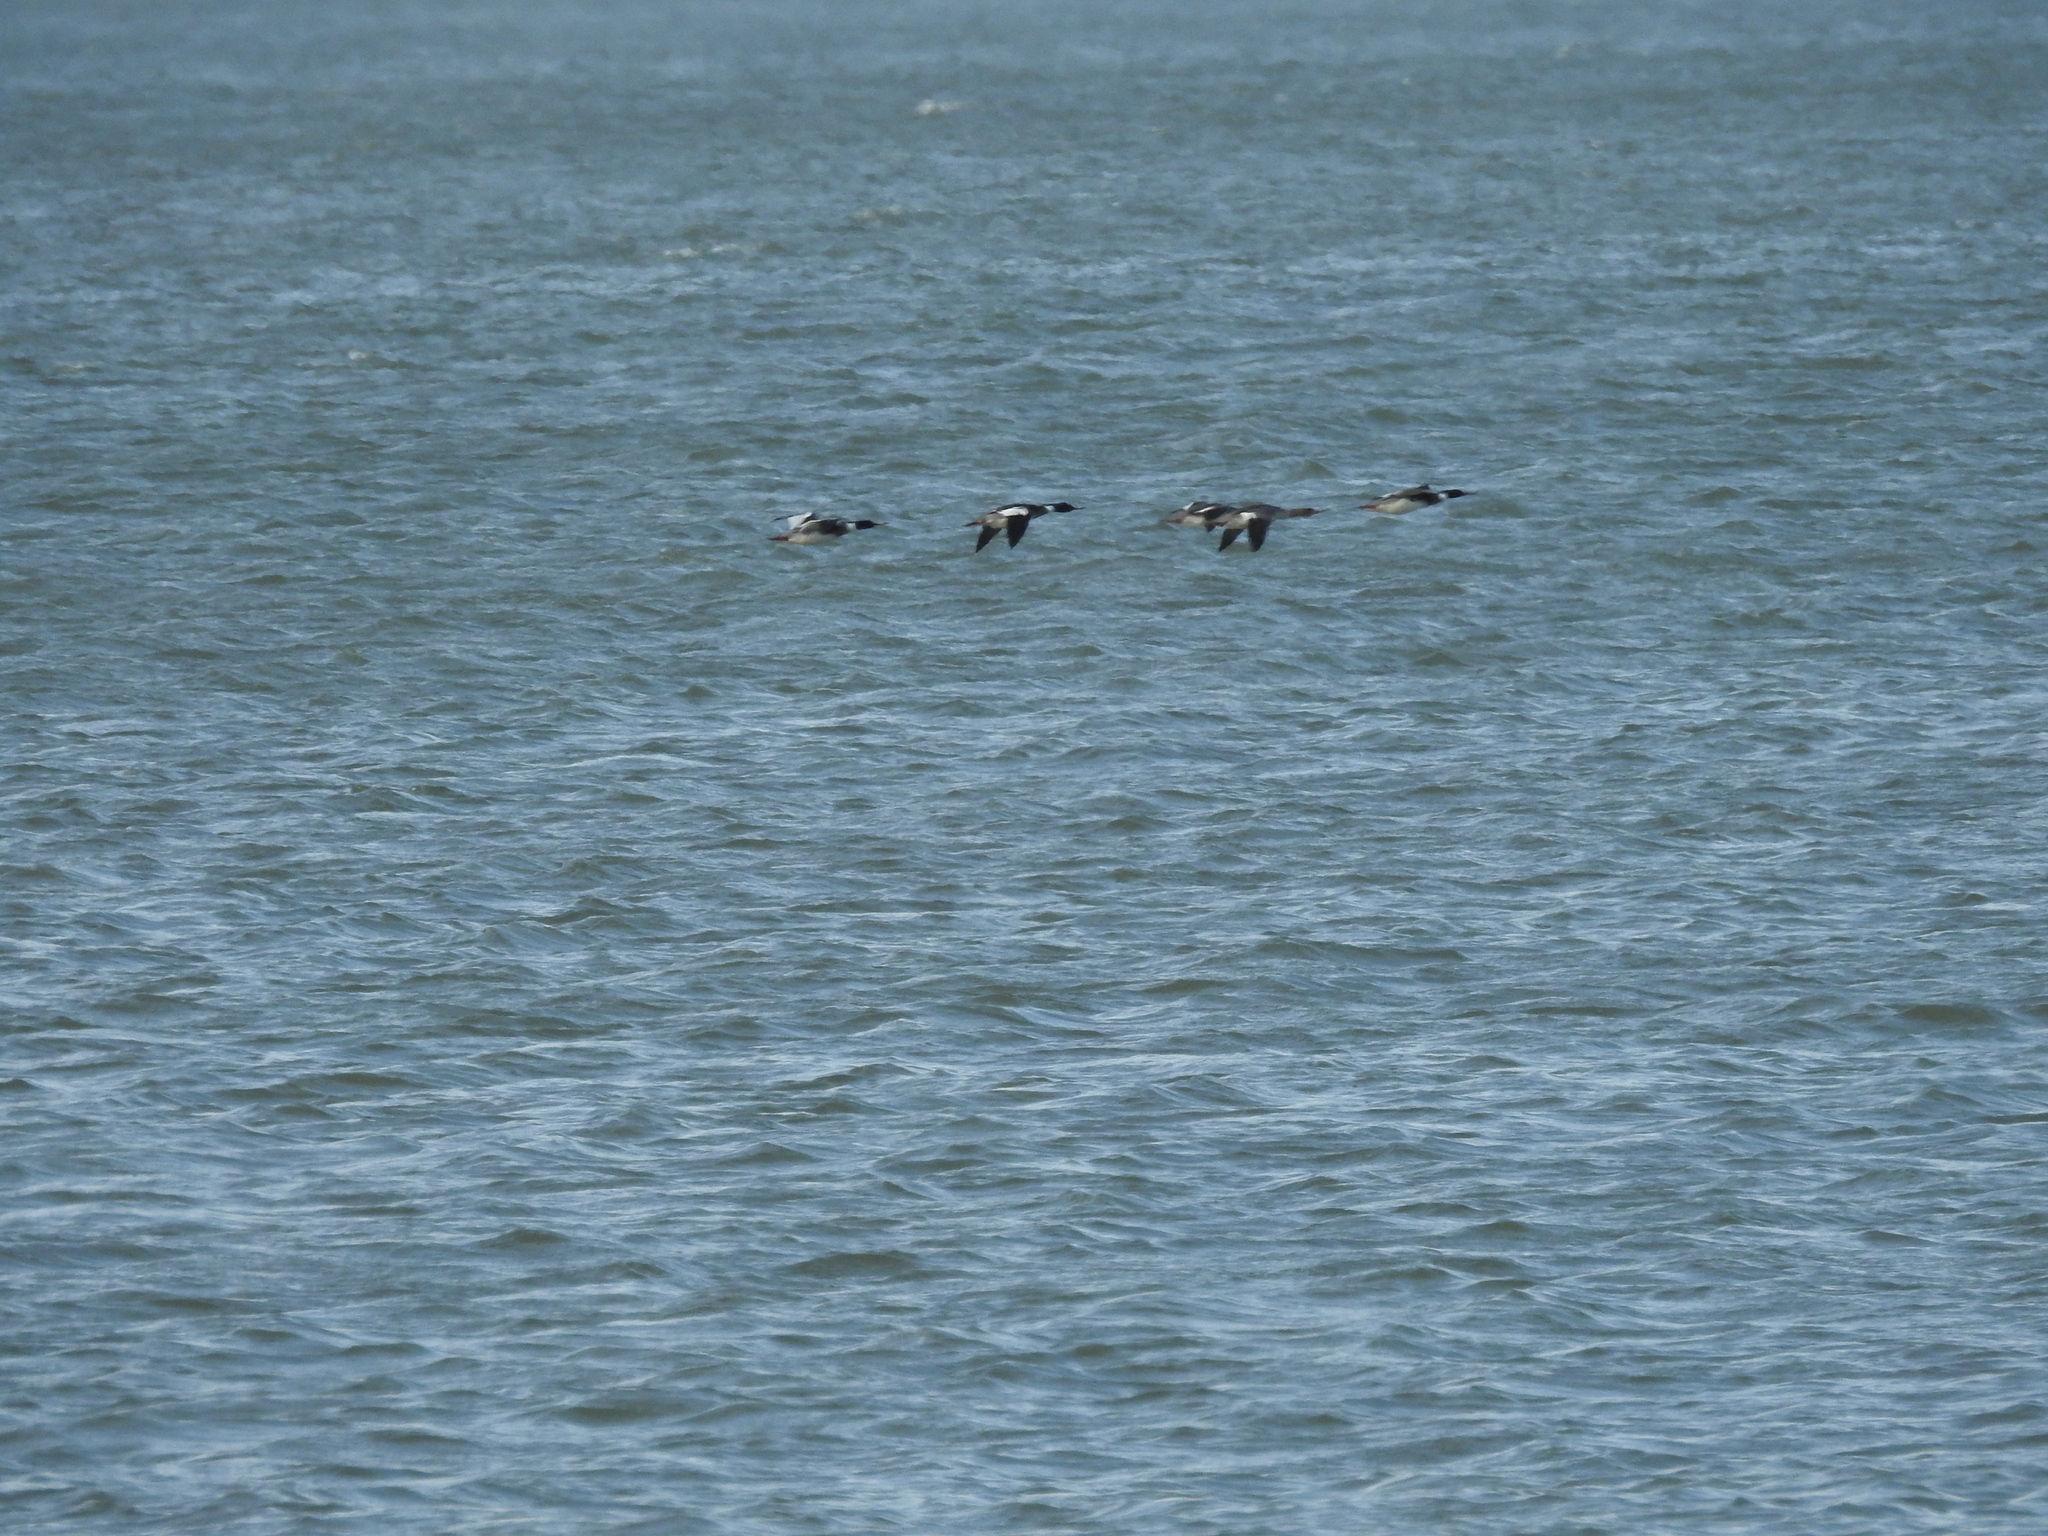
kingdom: Animalia
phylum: Chordata
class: Aves
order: Anseriformes
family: Anatidae
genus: Mergus
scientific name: Mergus serrator
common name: Red-breasted merganser
